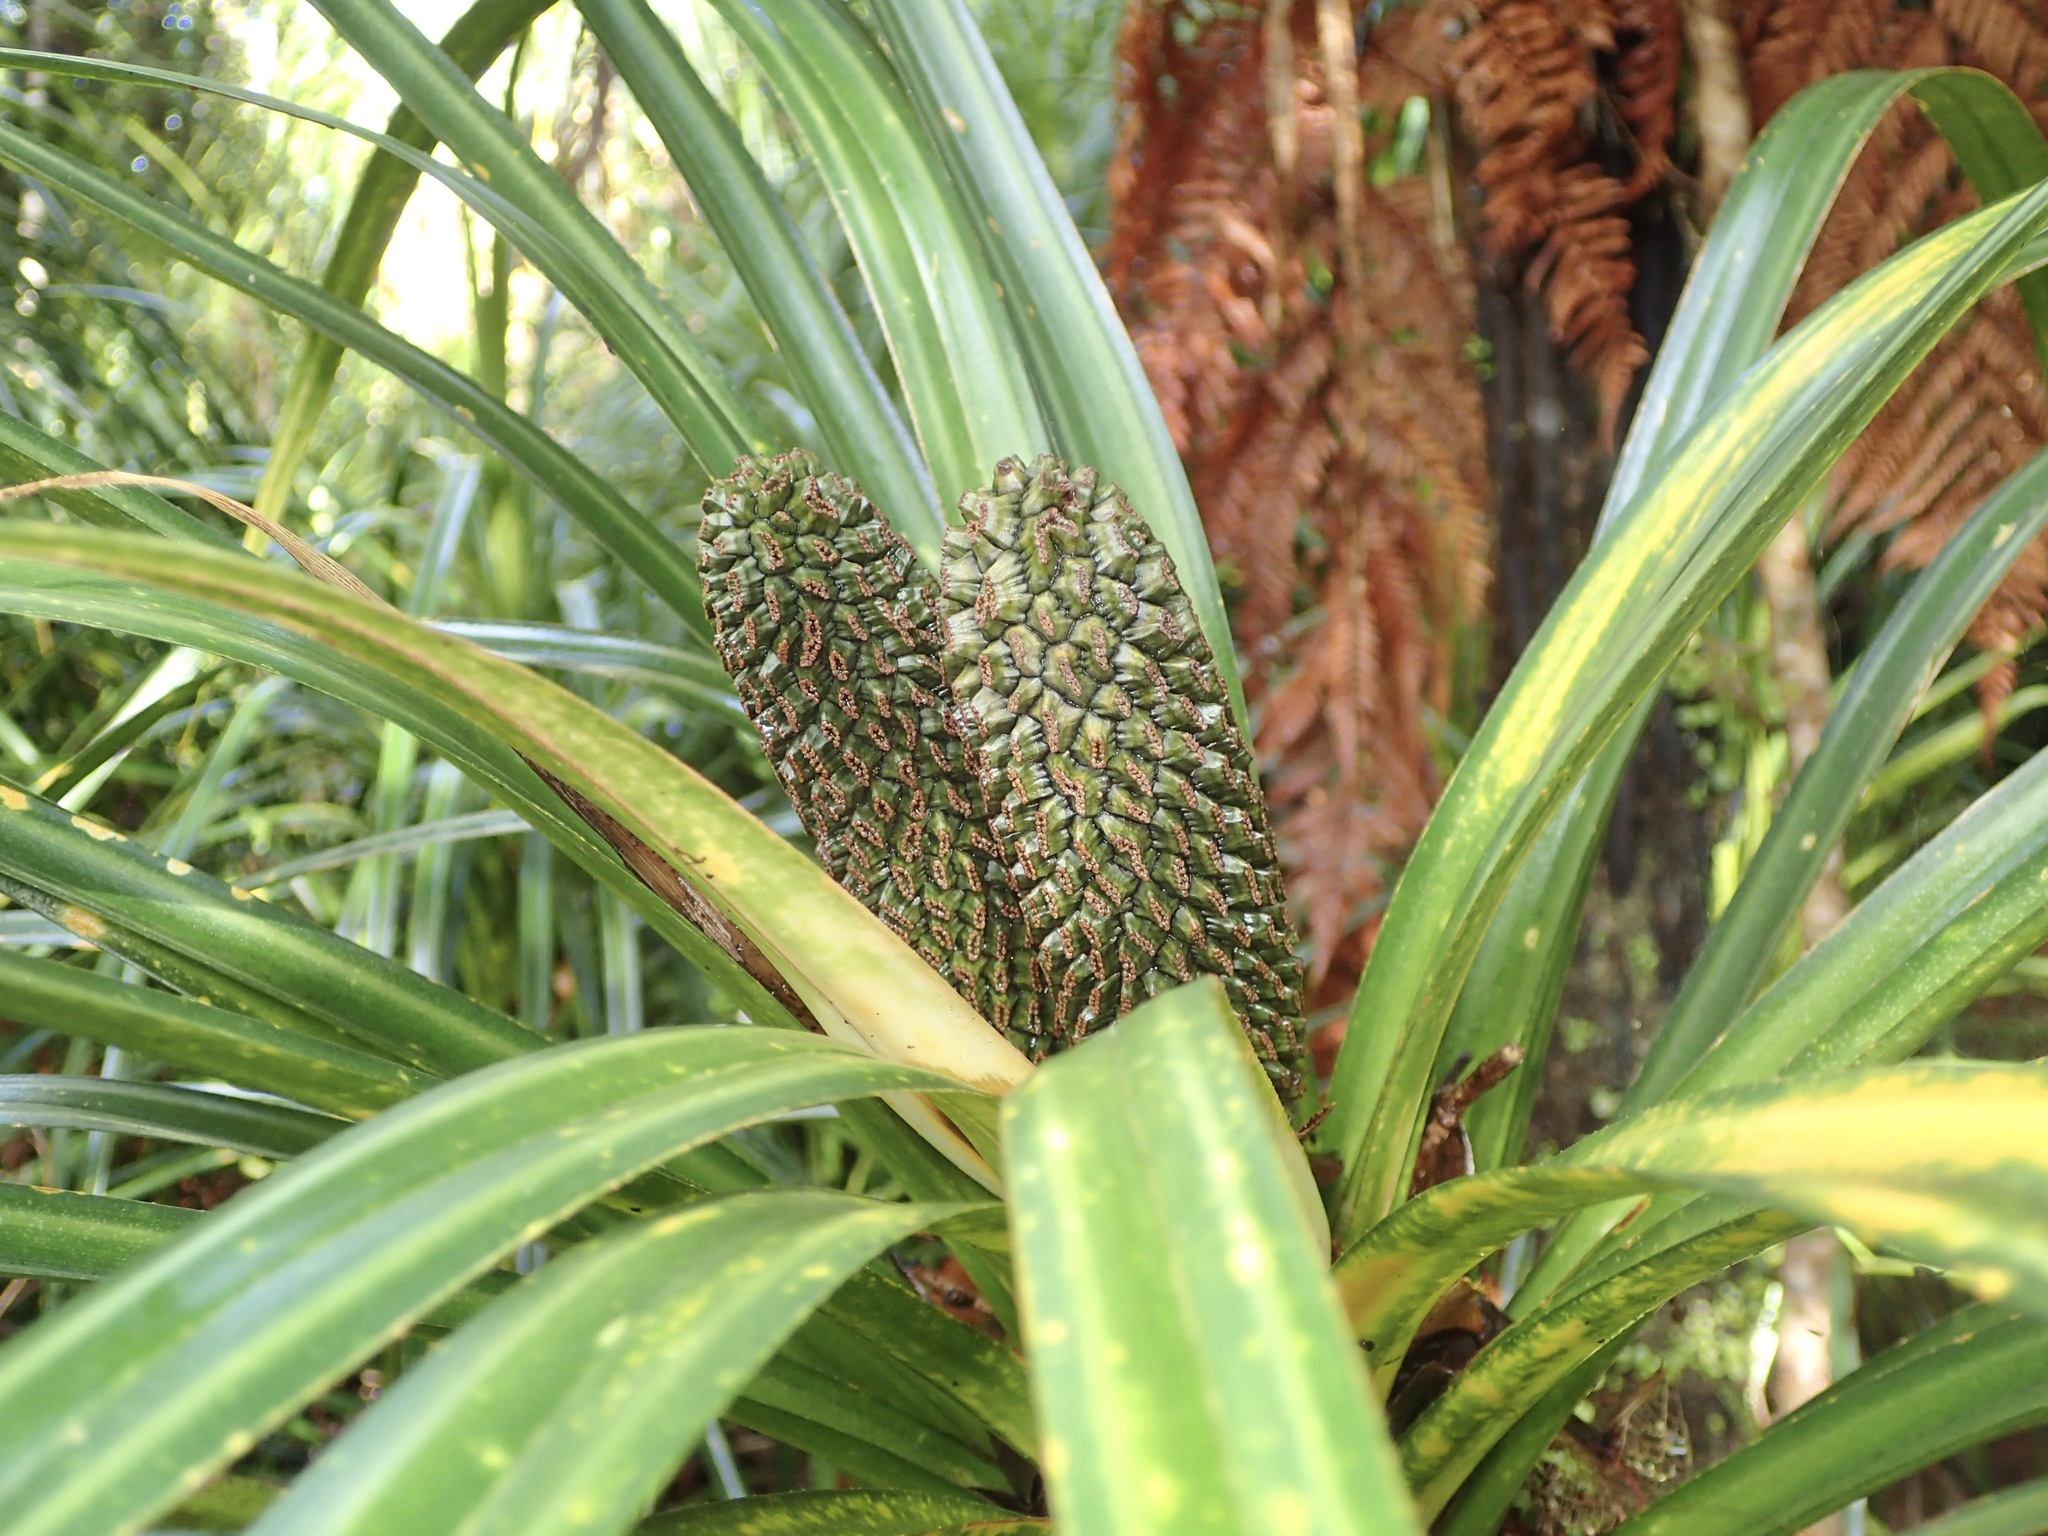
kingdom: Plantae
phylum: Tracheophyta
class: Liliopsida
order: Pandanales
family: Pandanaceae
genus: Freycinetia
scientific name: Freycinetia banksii
